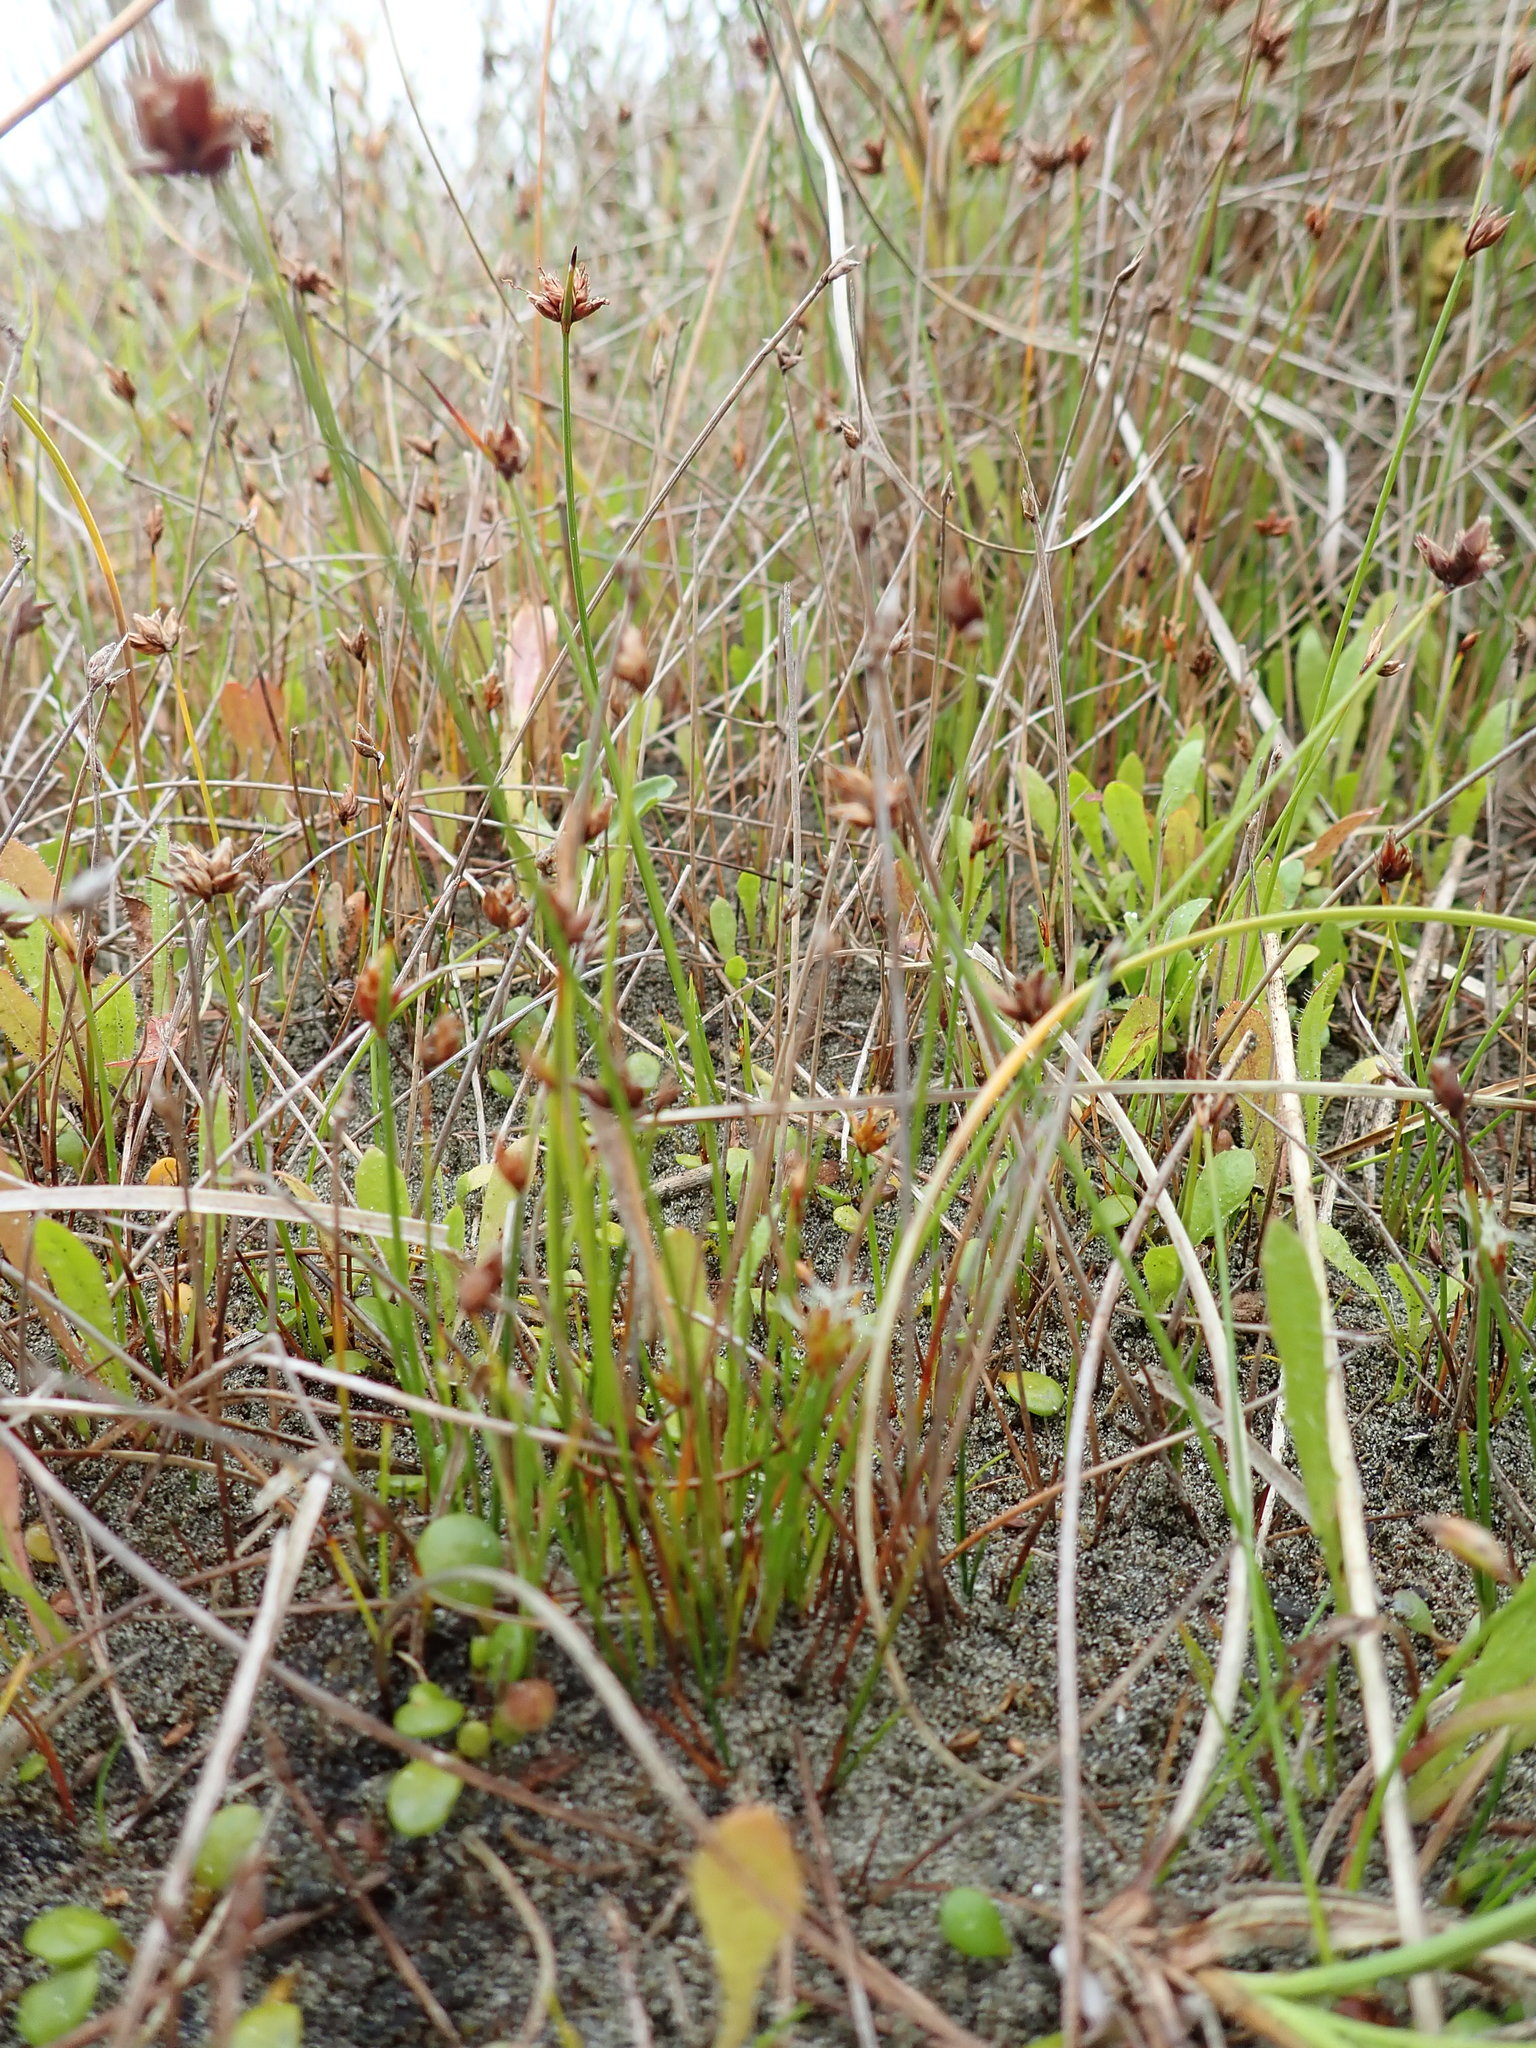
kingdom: Plantae
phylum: Tracheophyta
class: Liliopsida
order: Poales
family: Cyperaceae
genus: Schoenus
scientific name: Schoenus nitens
